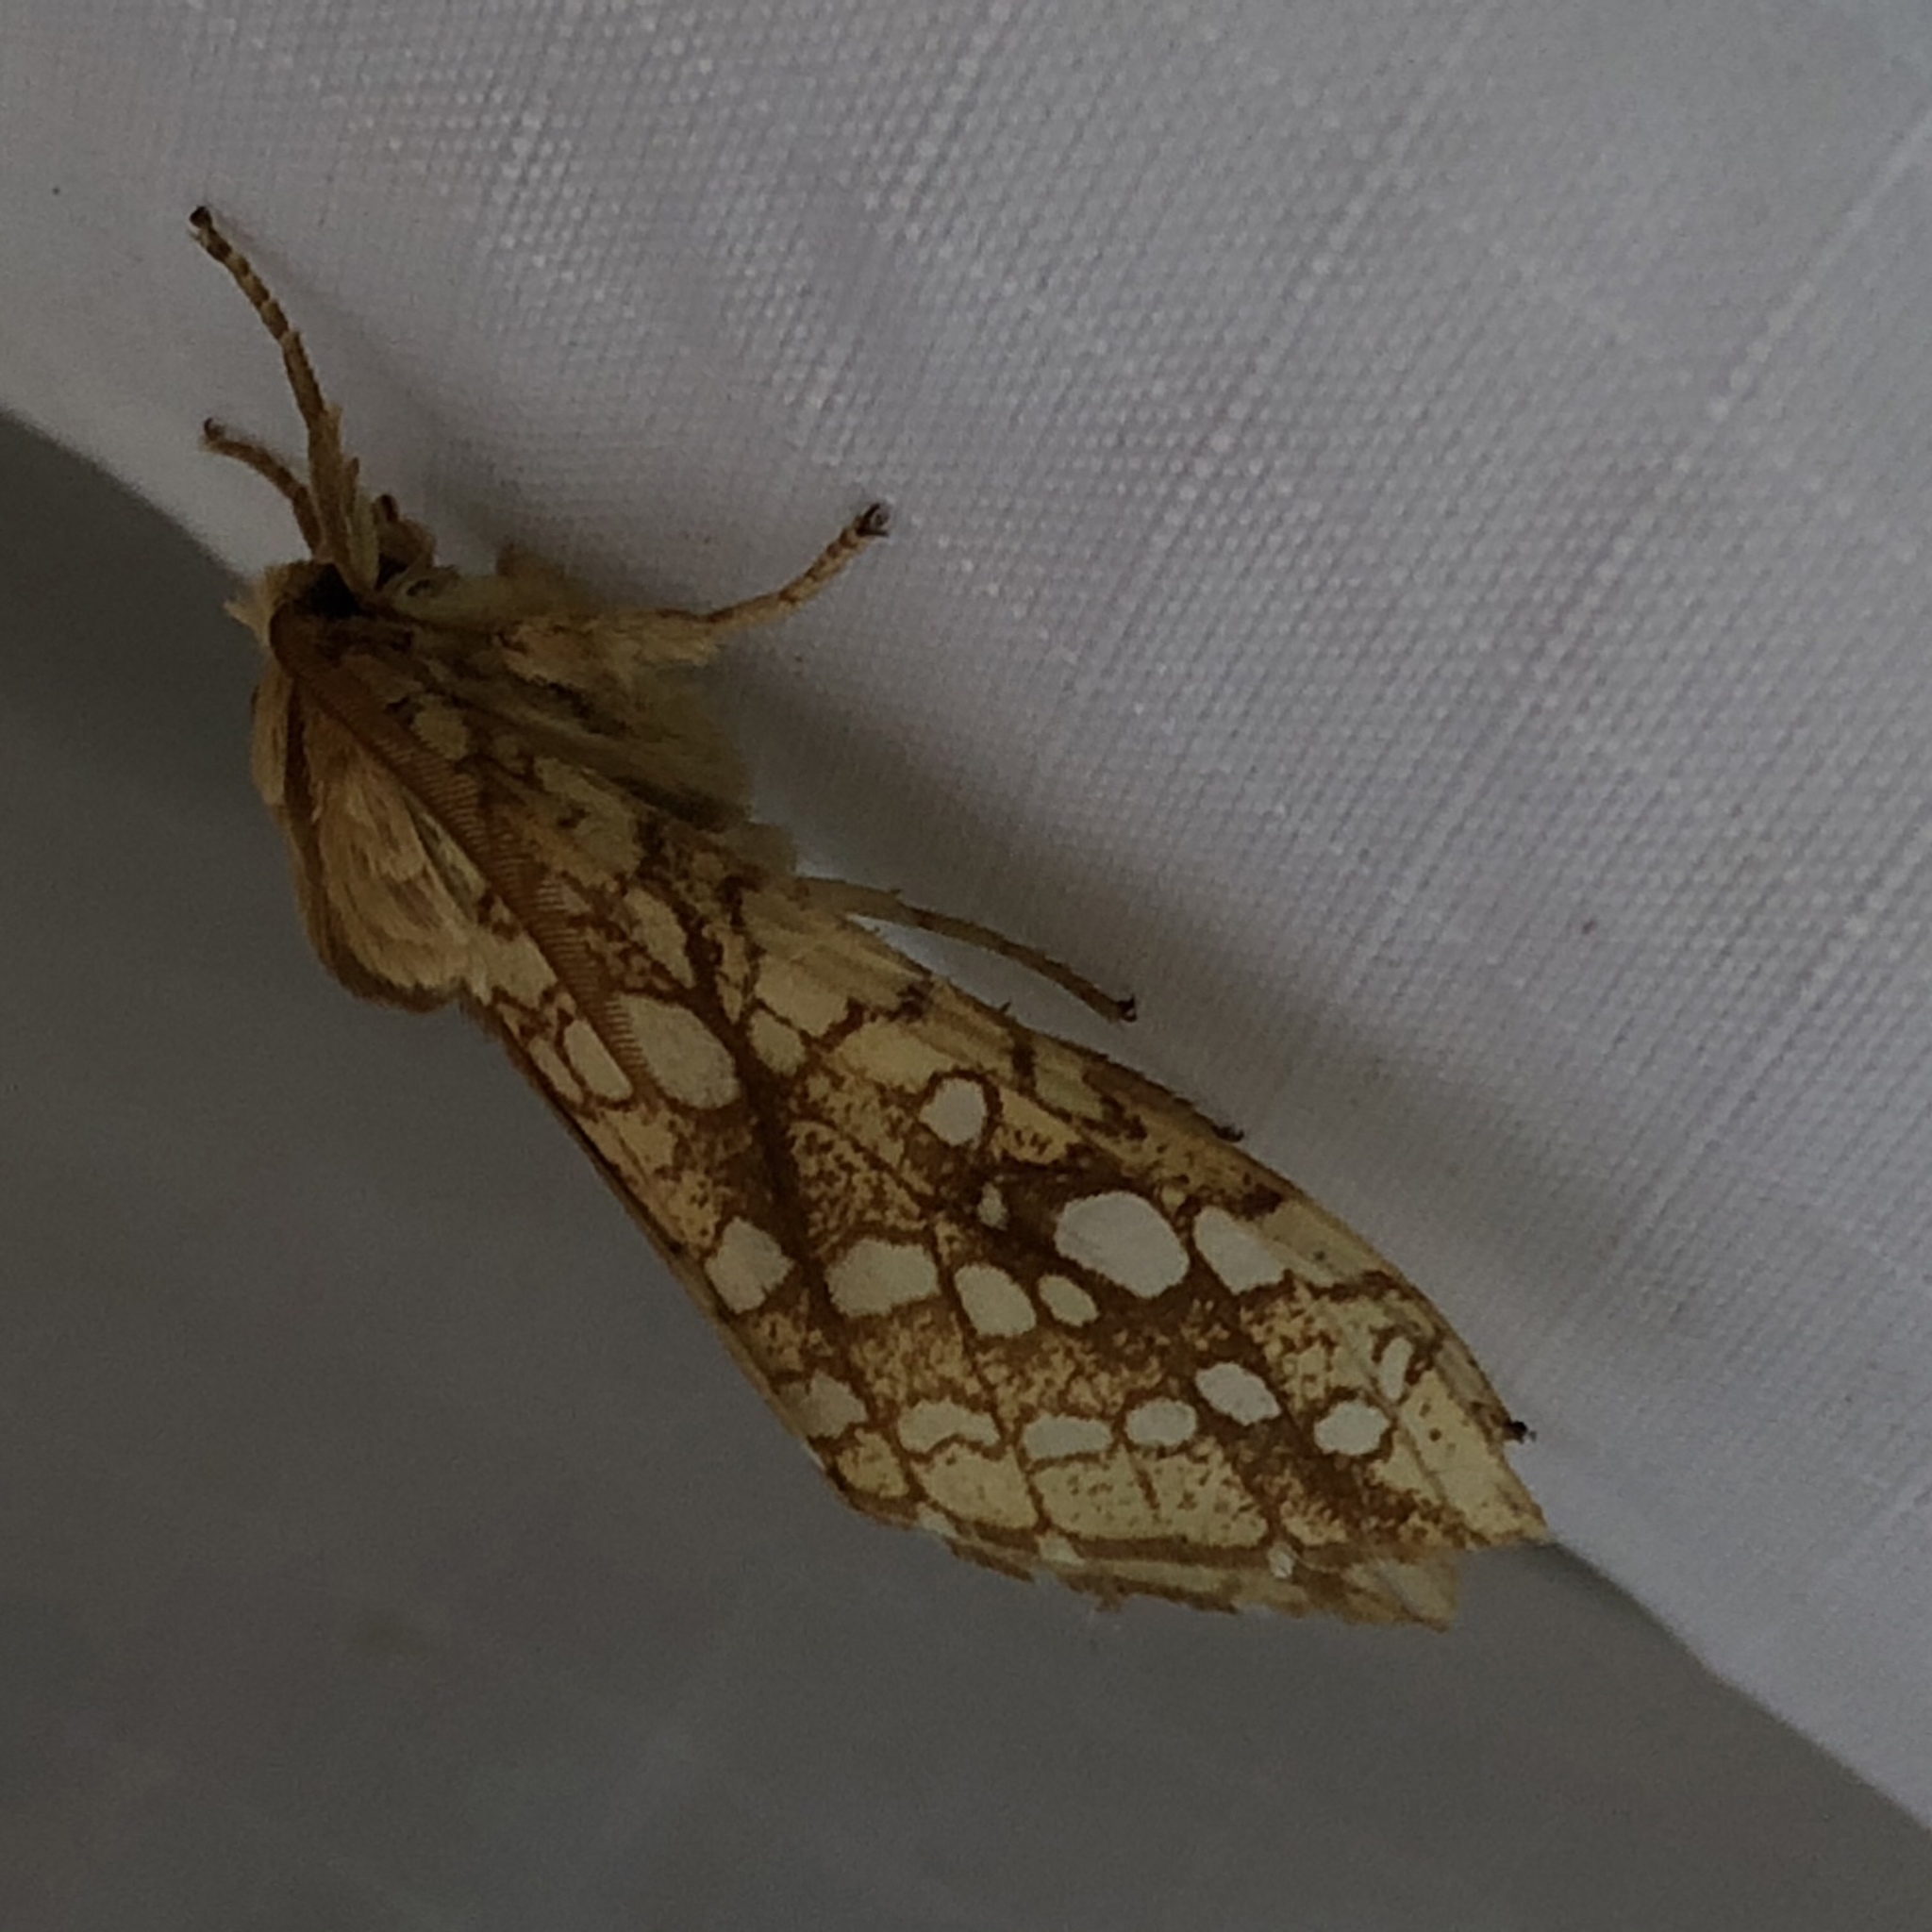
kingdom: Animalia
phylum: Arthropoda
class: Insecta
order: Lepidoptera
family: Erebidae
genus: Lophocampa
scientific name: Lophocampa caryae
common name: Hickory tussock moth
